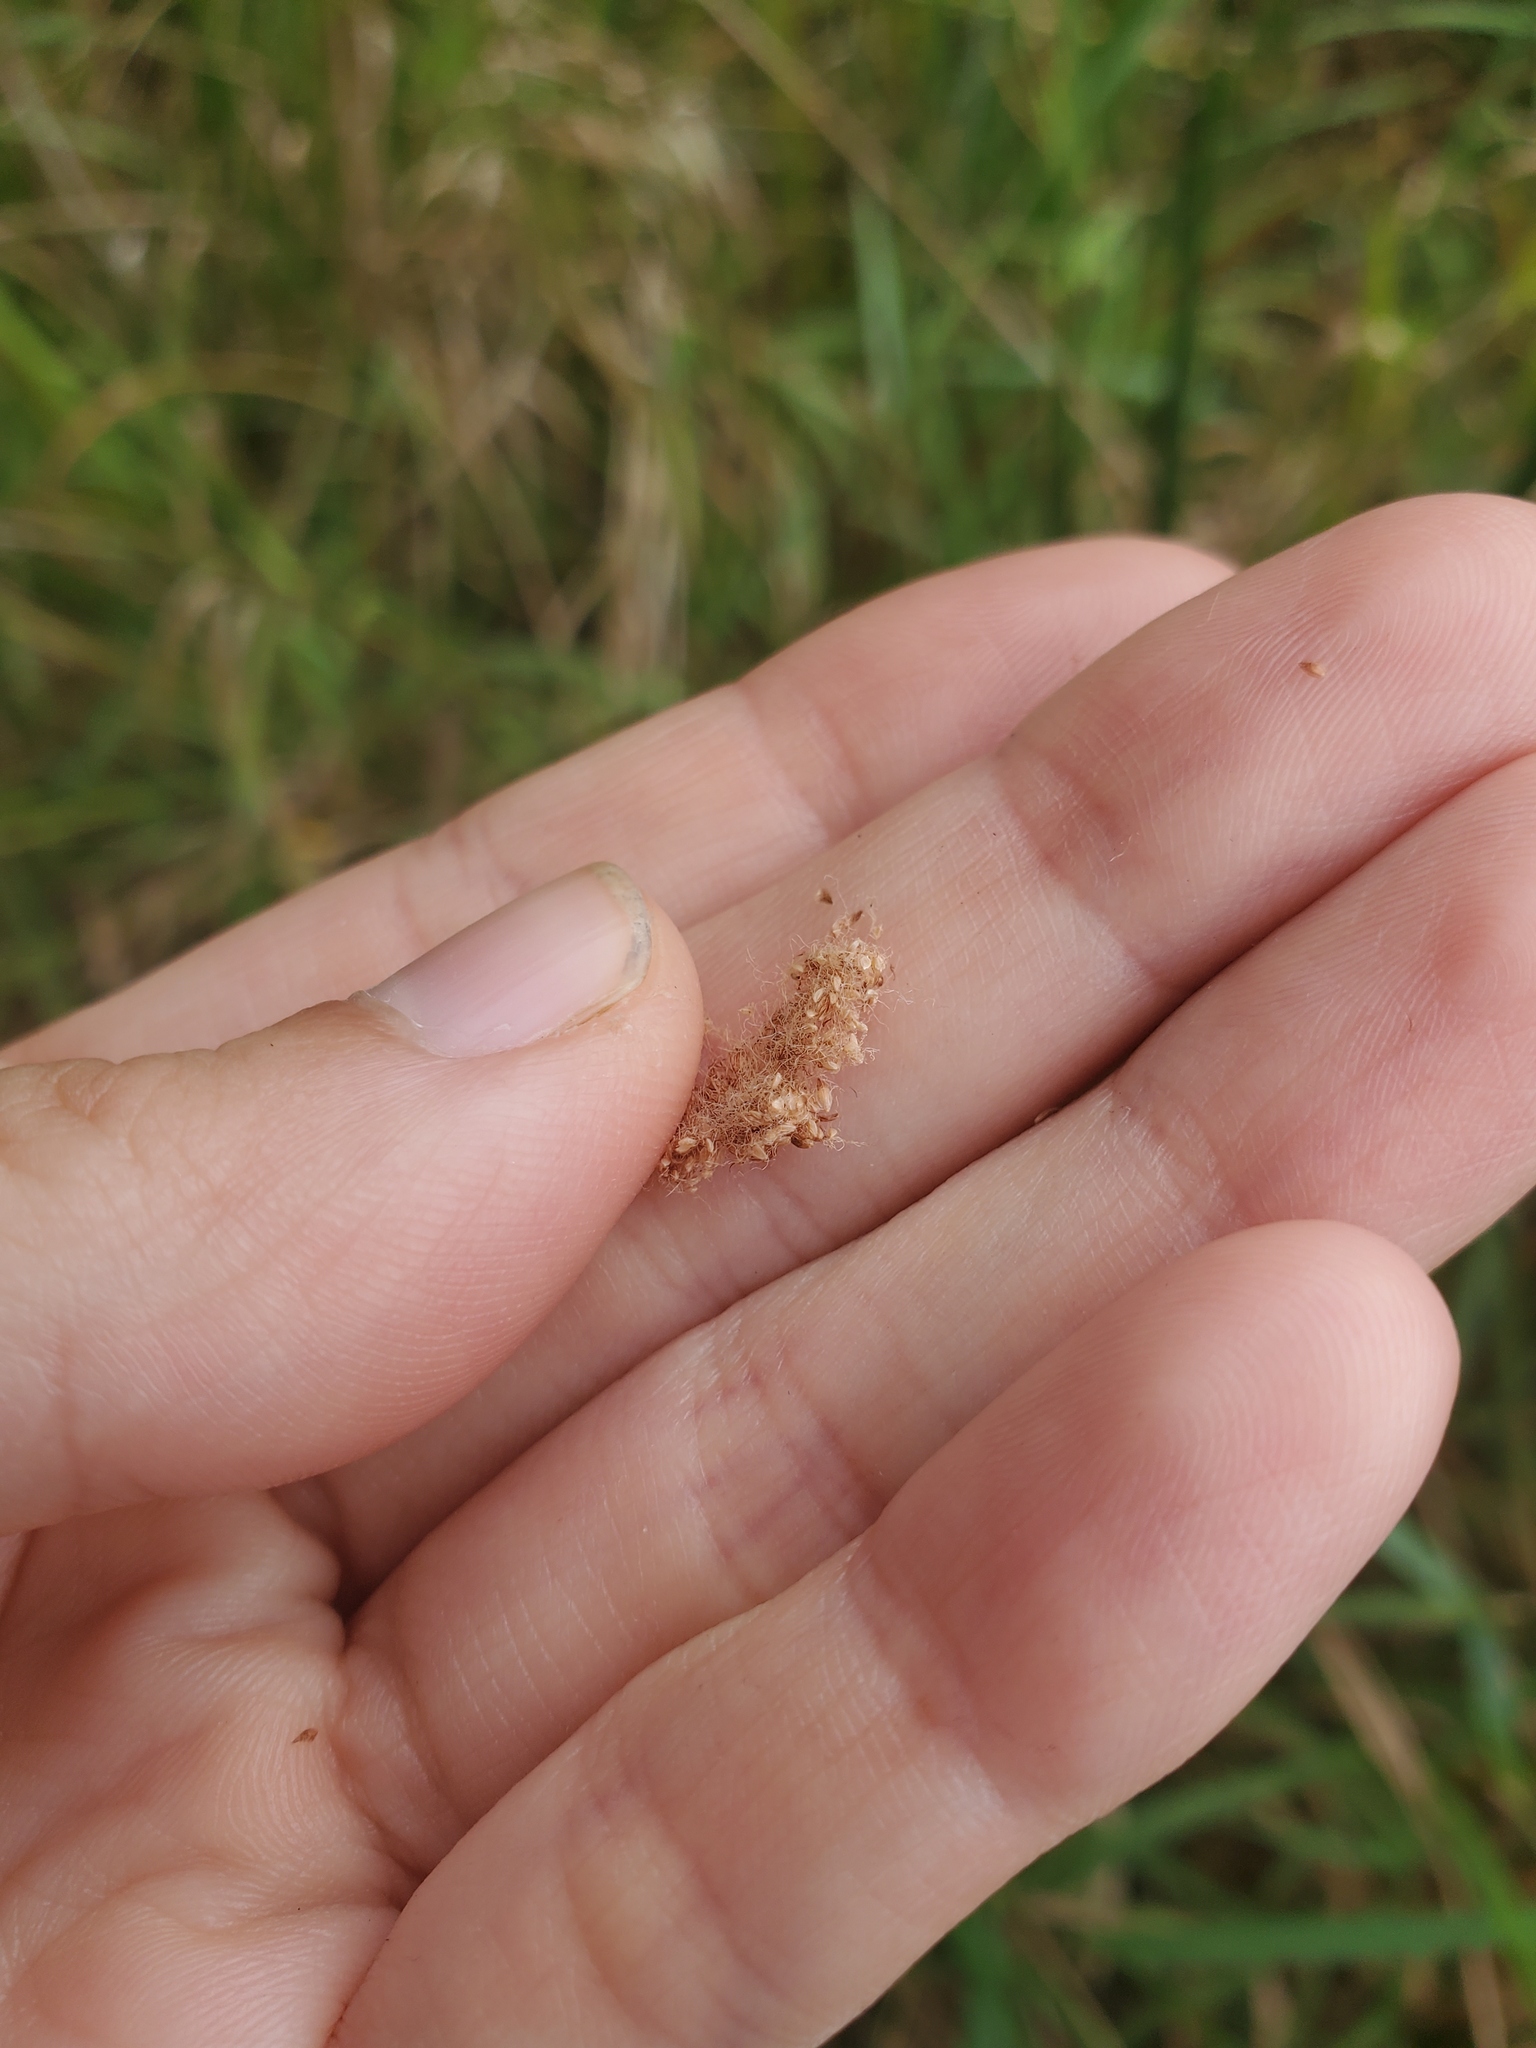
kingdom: Plantae
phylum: Tracheophyta
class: Liliopsida
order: Poales
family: Cyperaceae
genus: Scirpus
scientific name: Scirpus cyperinus
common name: Black-sheathed bulrush
